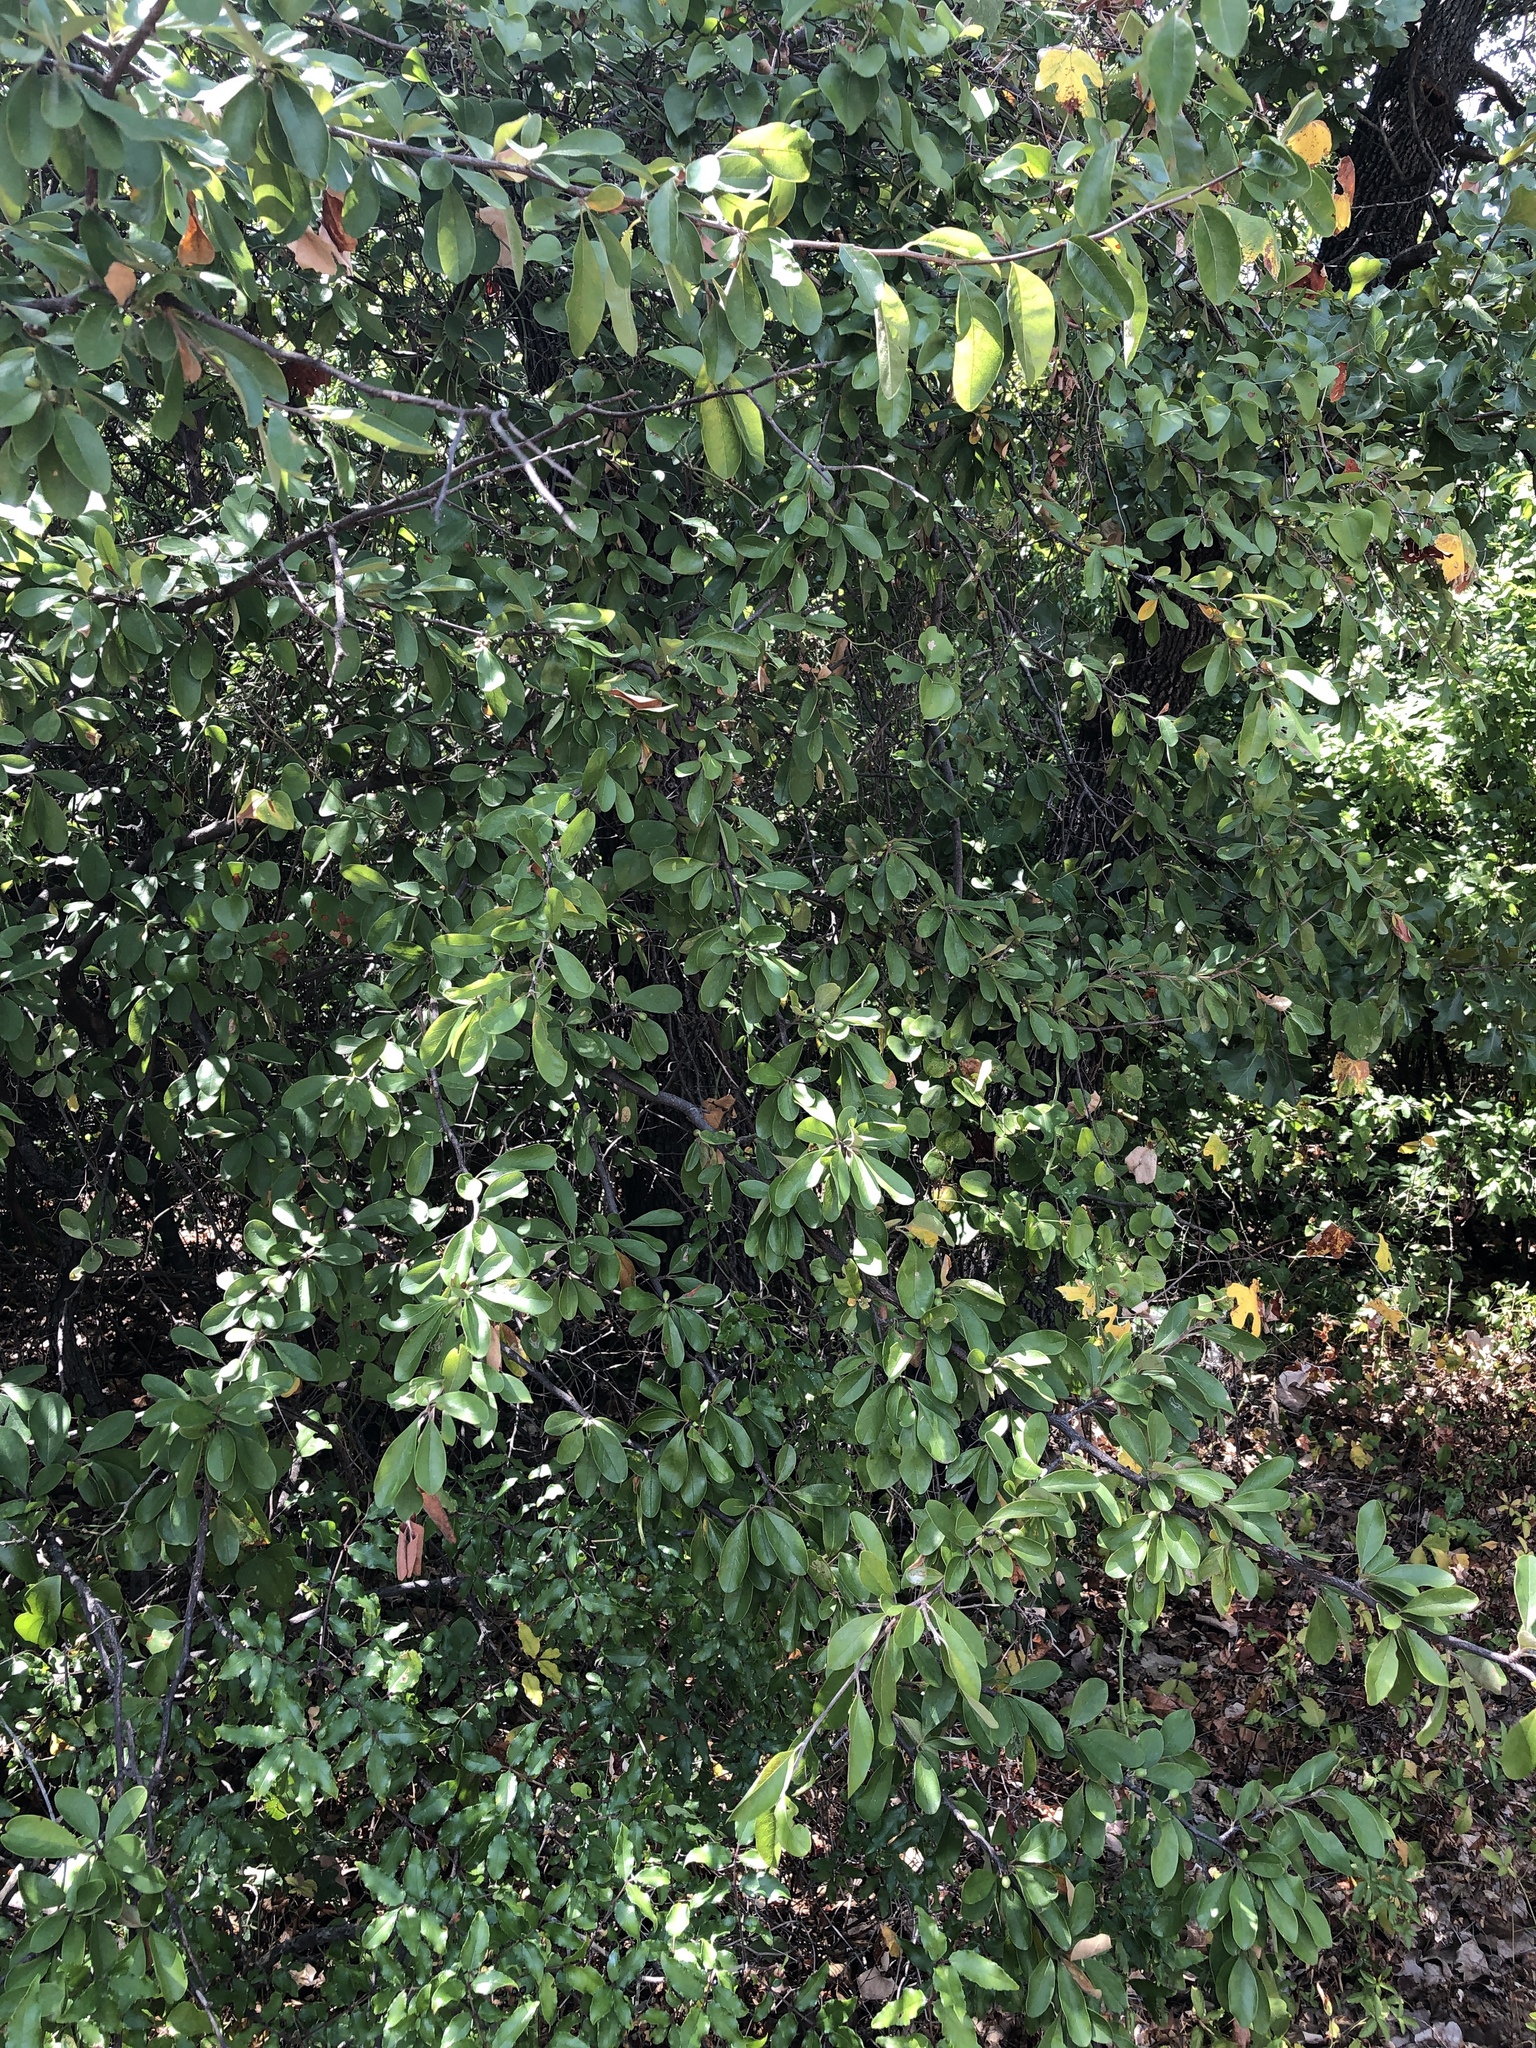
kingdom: Plantae
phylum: Tracheophyta
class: Magnoliopsida
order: Ericales
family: Sapotaceae
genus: Sideroxylon
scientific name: Sideroxylon lanuginosum
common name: Chittamwood
